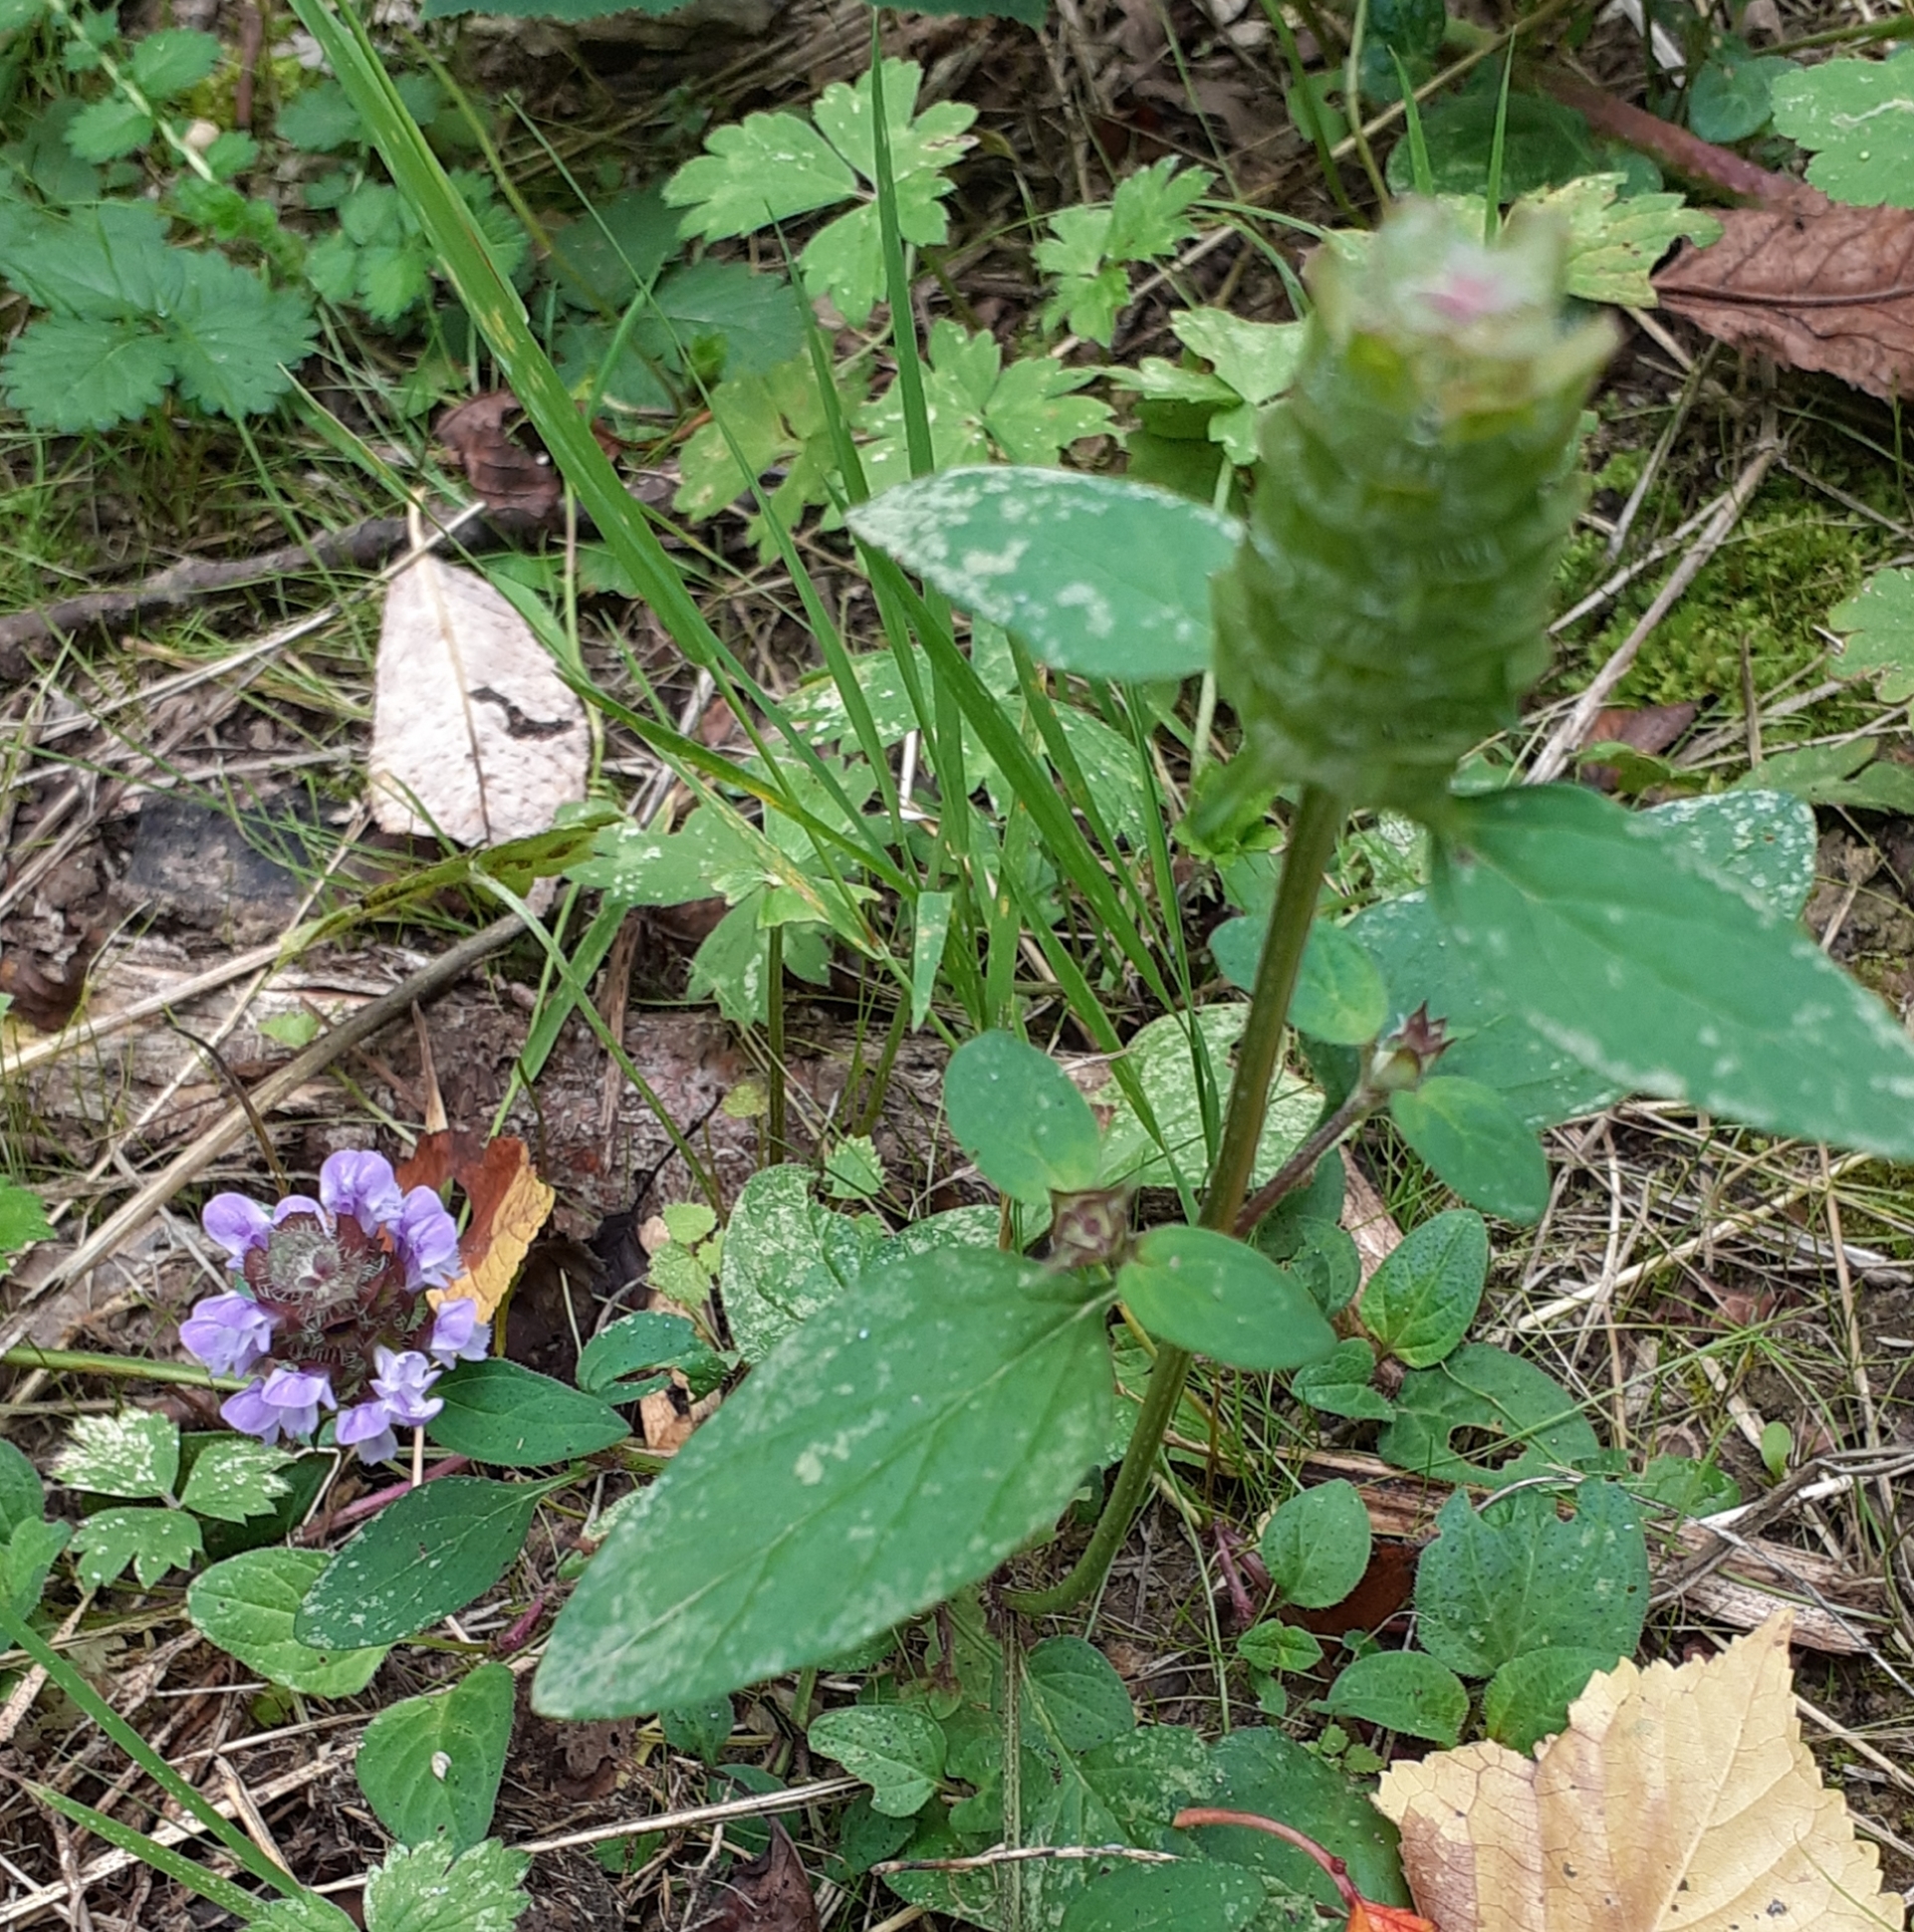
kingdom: Plantae
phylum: Tracheophyta
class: Magnoliopsida
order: Lamiales
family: Lamiaceae
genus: Prunella
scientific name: Prunella vulgaris
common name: Heal-all
